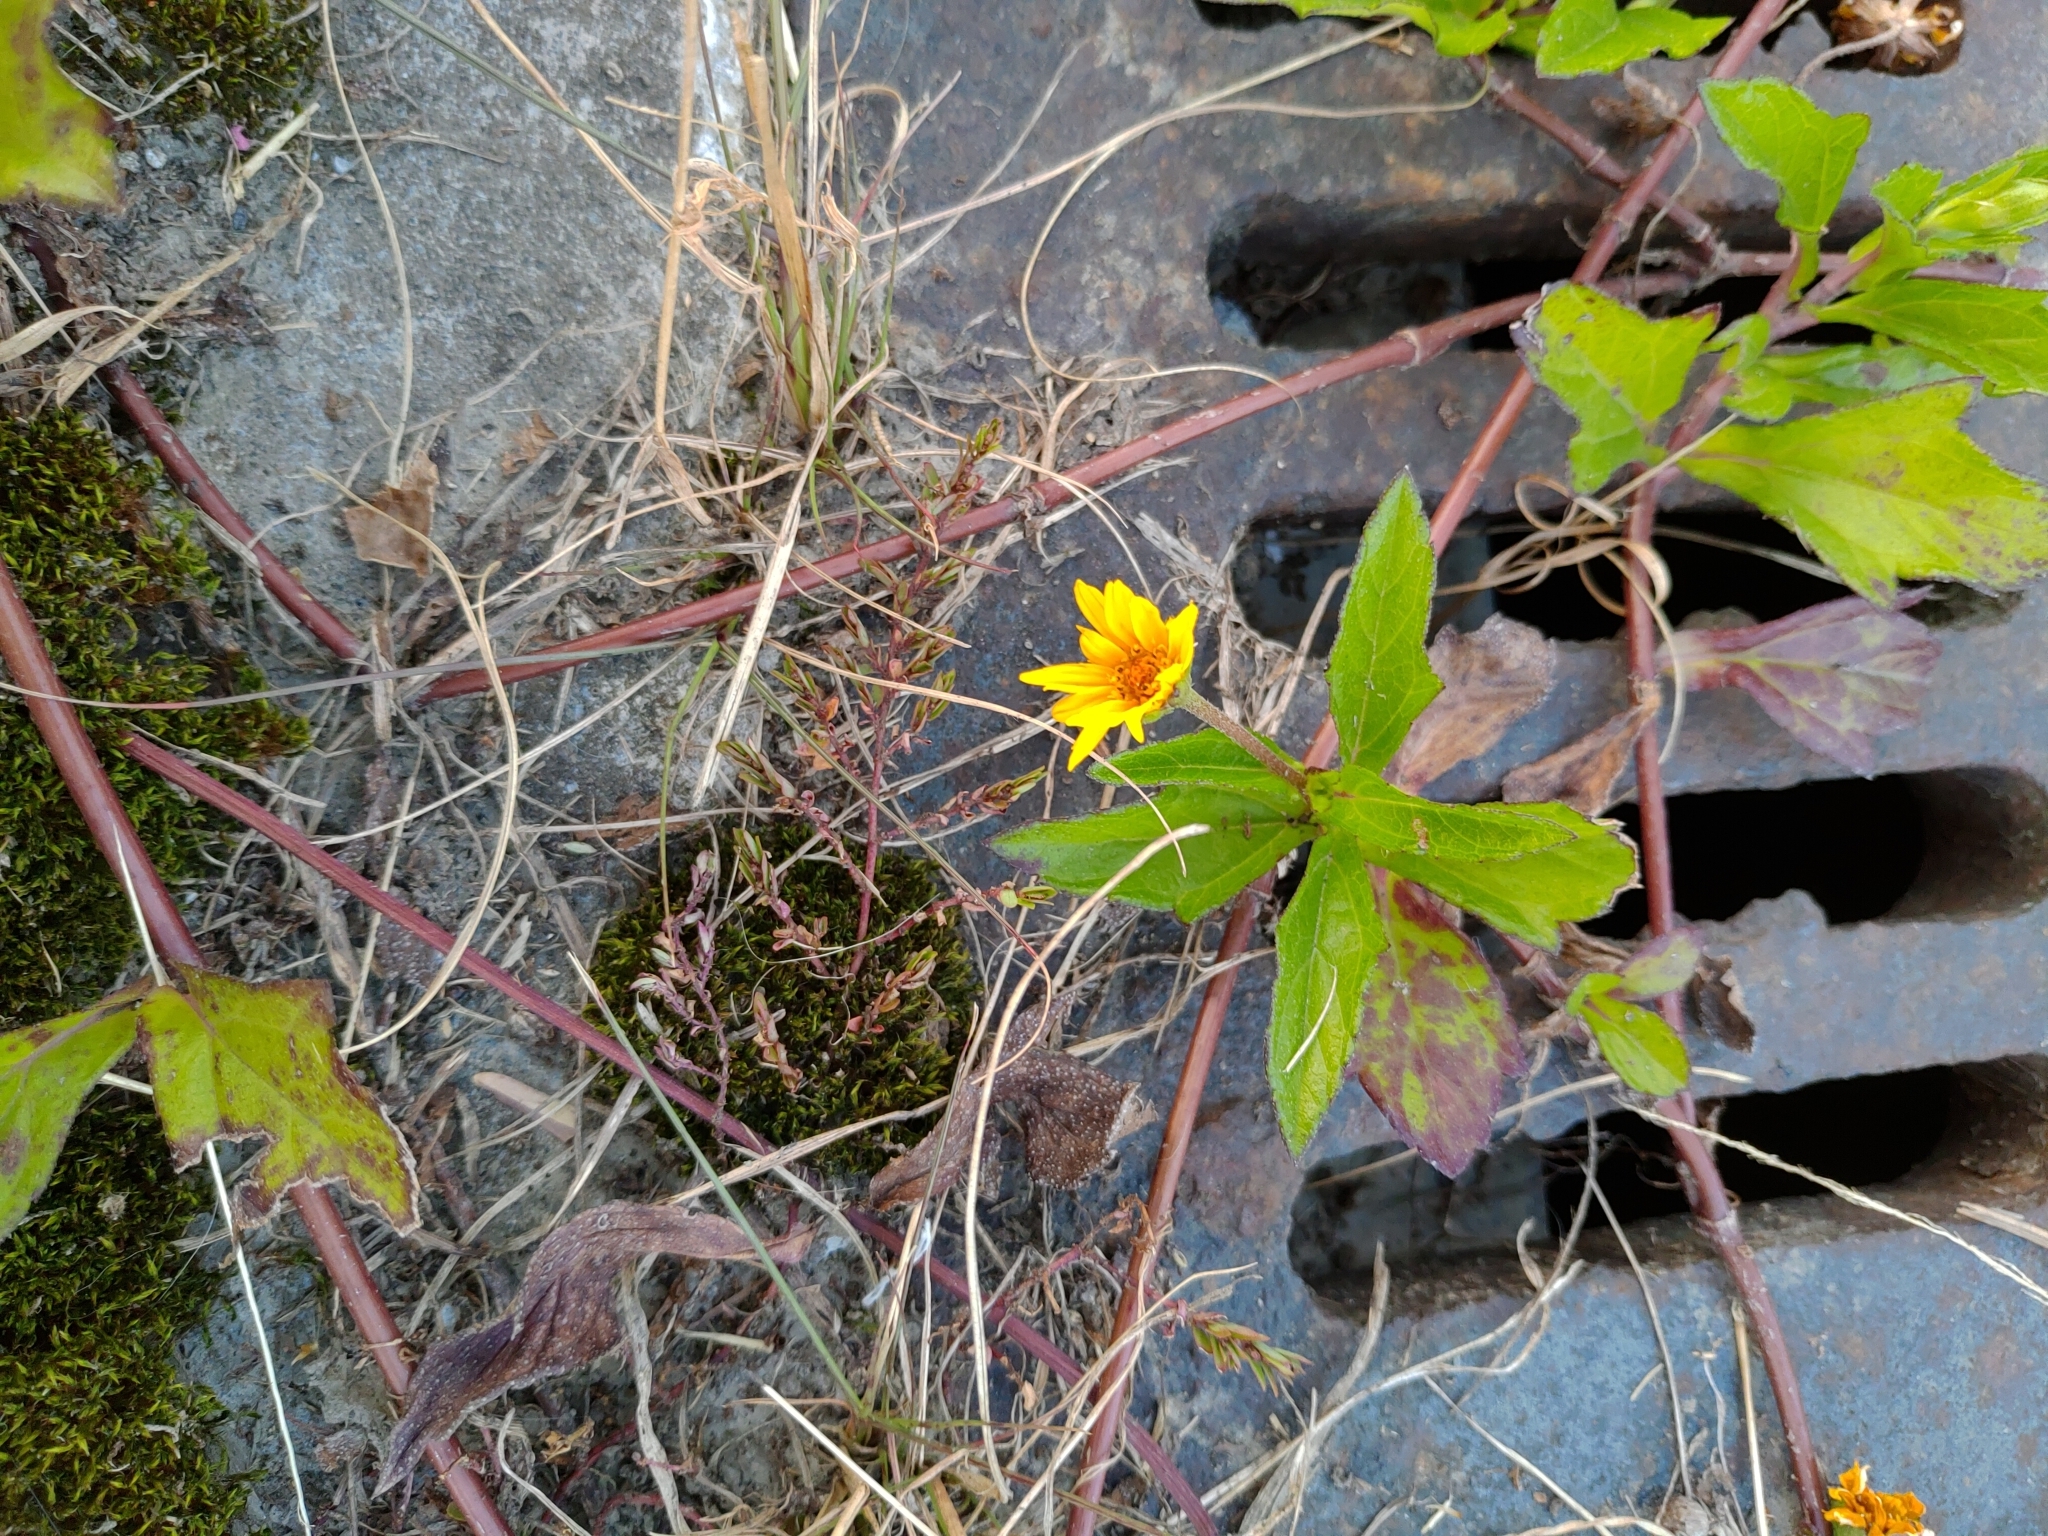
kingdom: Plantae
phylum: Tracheophyta
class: Magnoliopsida
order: Asterales
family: Asteraceae
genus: Sphagneticola
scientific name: Sphagneticola trilobata
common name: Bay biscayne creeping-oxeye
